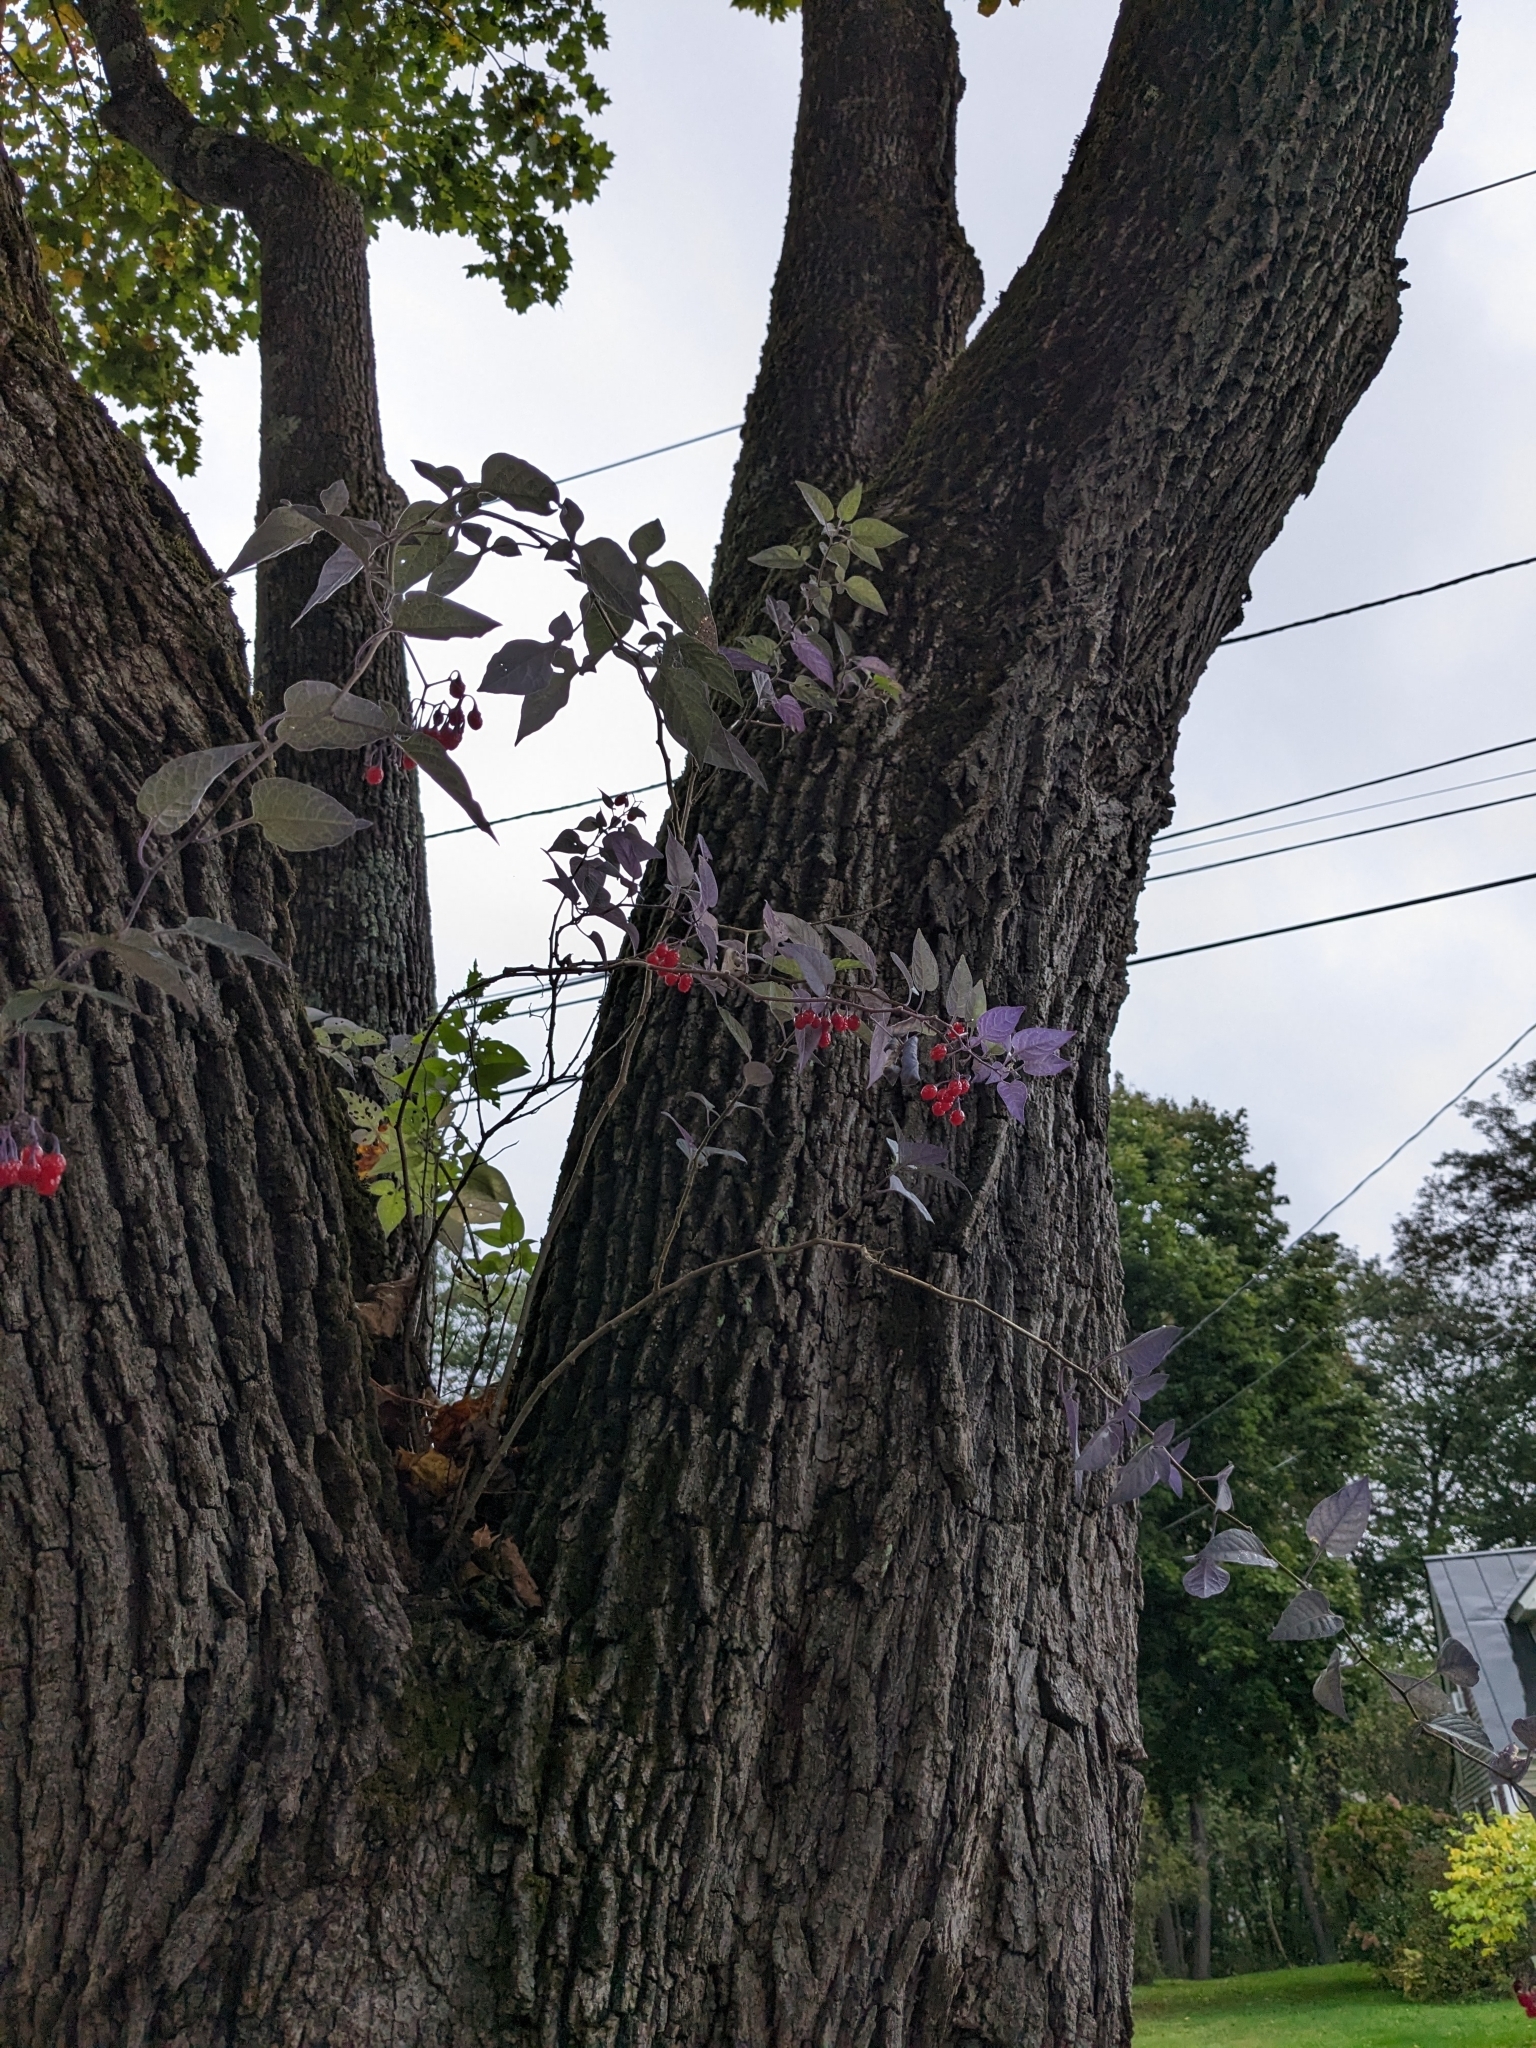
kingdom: Plantae
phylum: Tracheophyta
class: Magnoliopsida
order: Solanales
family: Solanaceae
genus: Solanum
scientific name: Solanum dulcamara
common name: Climbing nightshade
